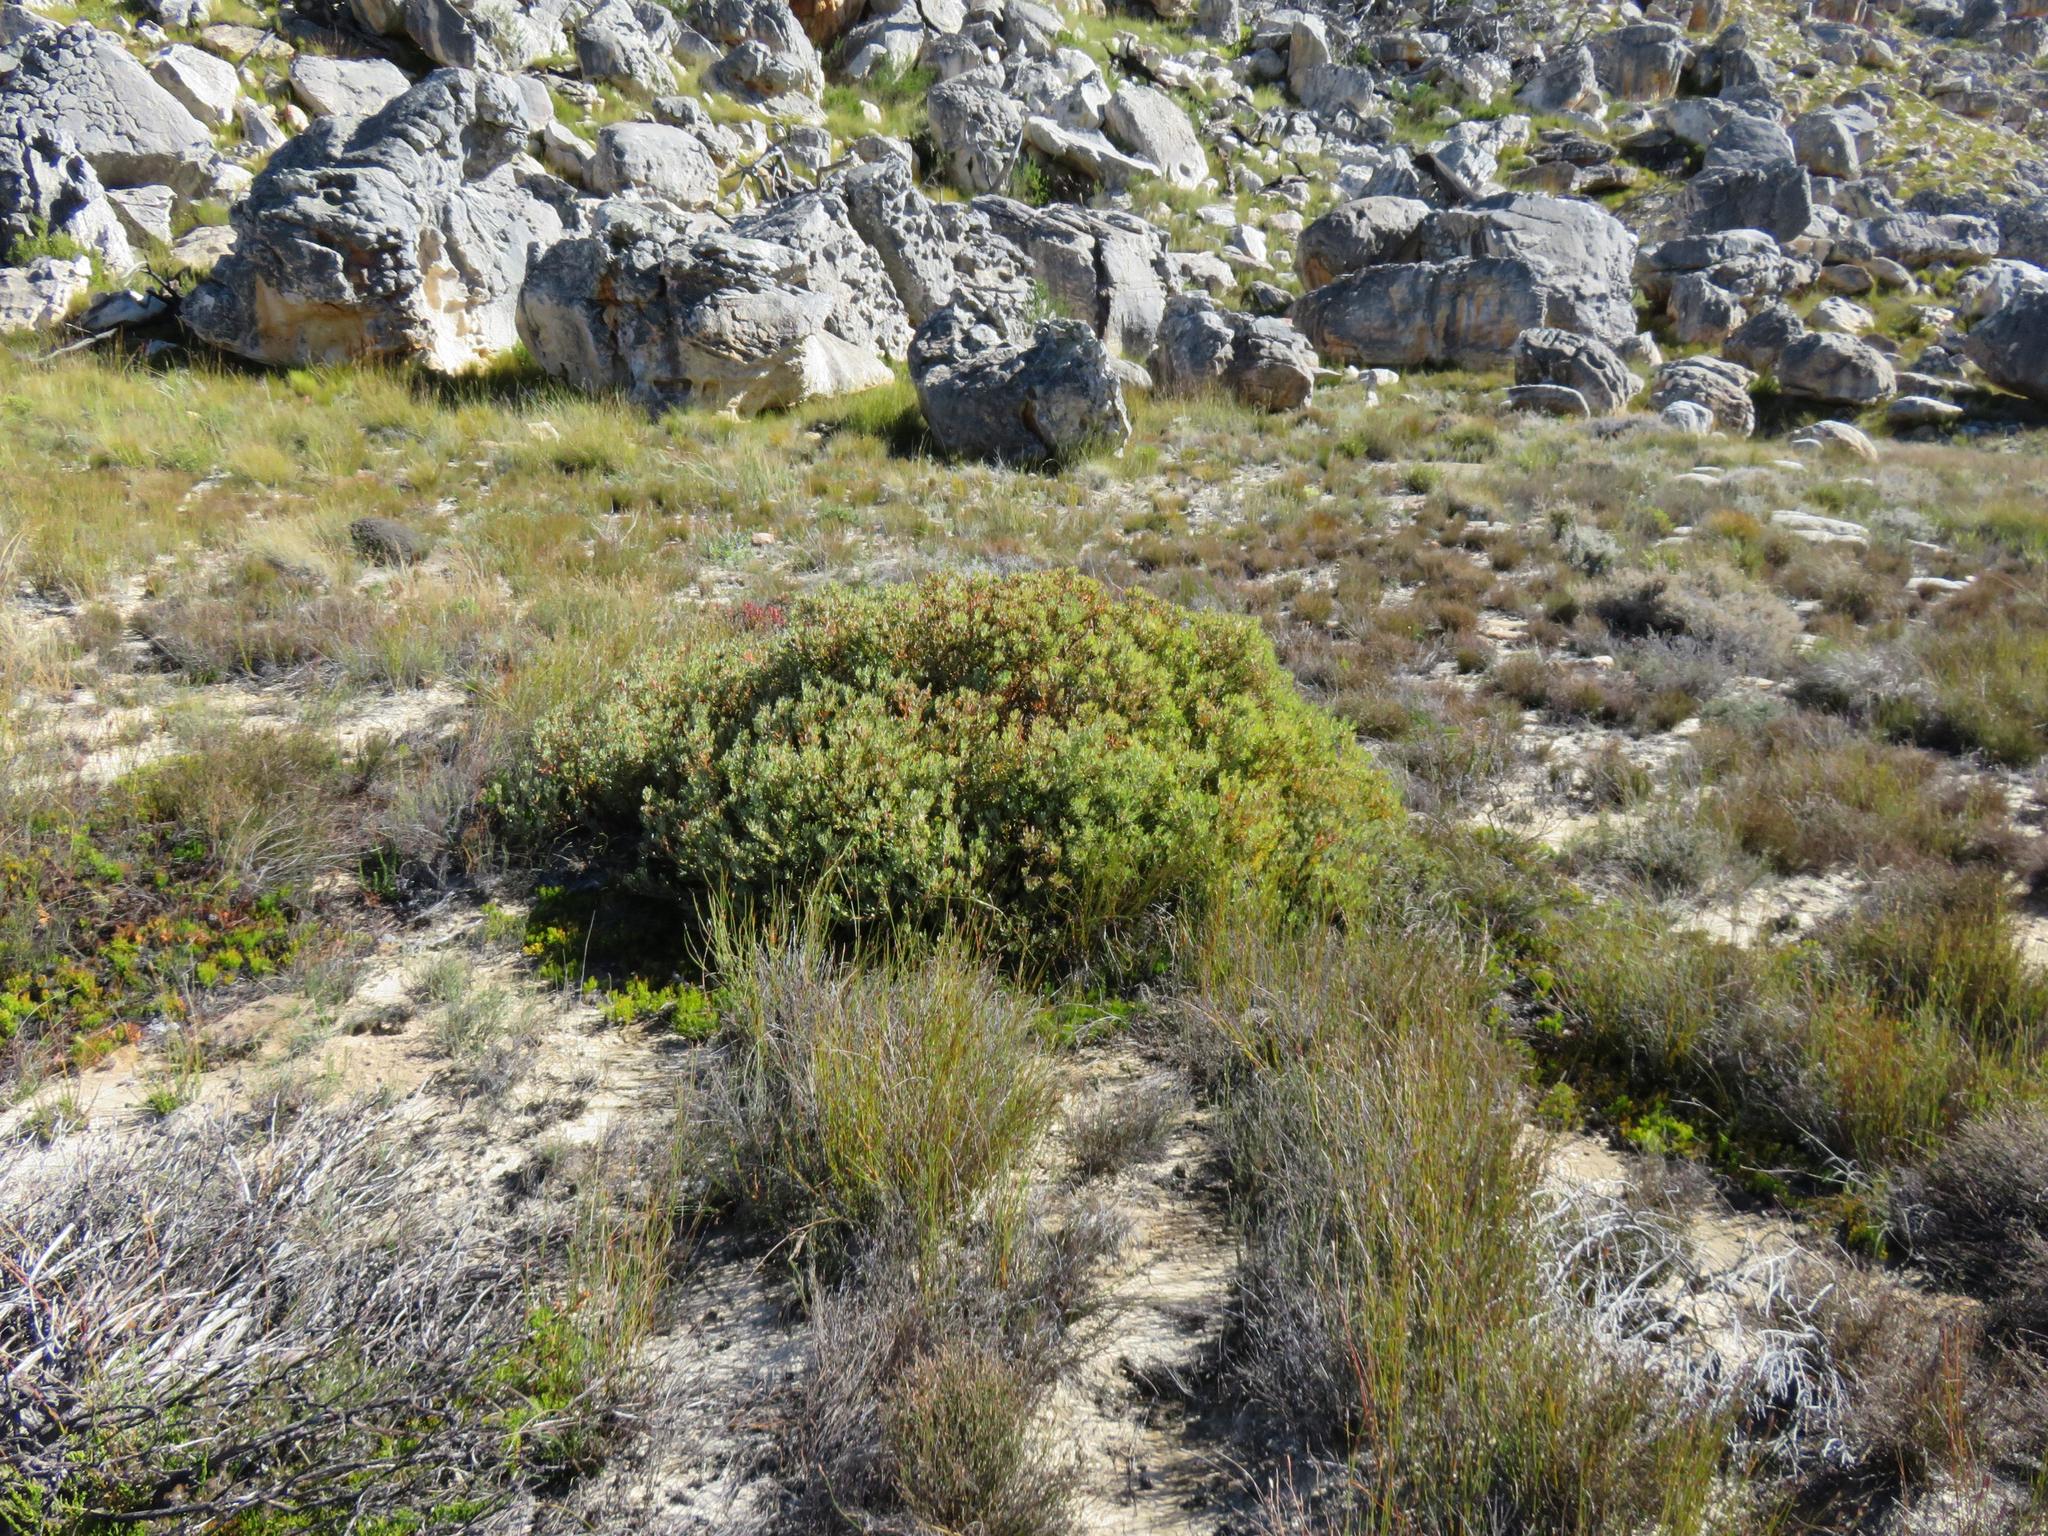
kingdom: Plantae
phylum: Tracheophyta
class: Magnoliopsida
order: Proteales
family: Proteaceae
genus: Leucadendron
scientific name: Leucadendron glaberrimum
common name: Common oily conebush
